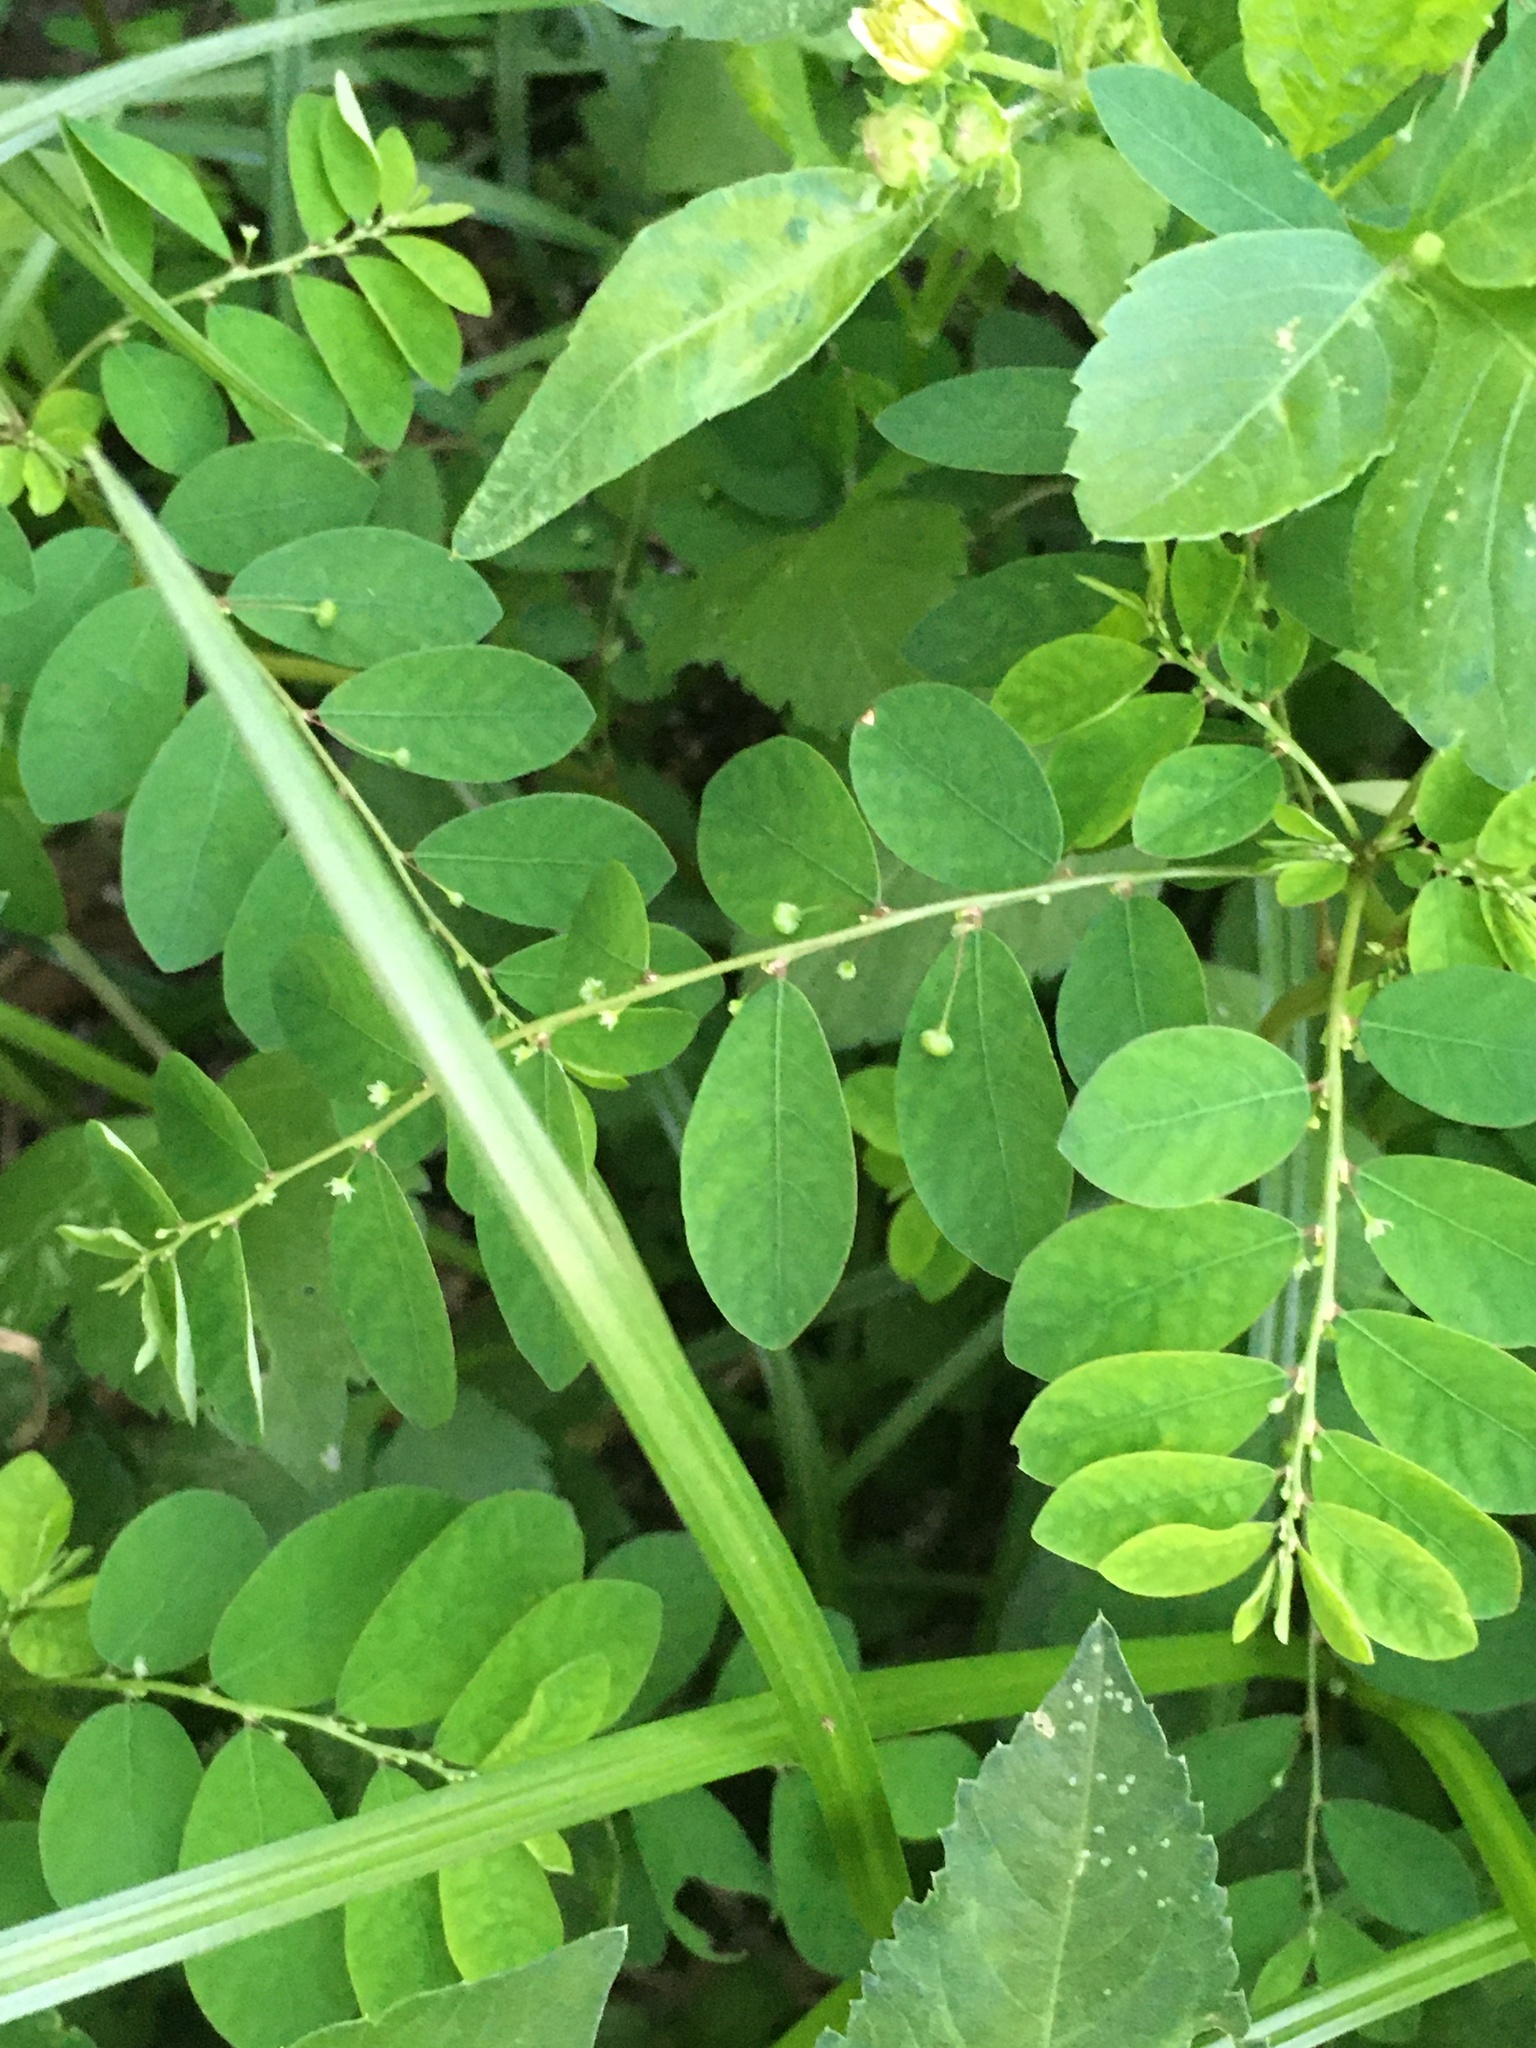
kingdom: Plantae
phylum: Tracheophyta
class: Magnoliopsida
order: Malpighiales
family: Phyllanthaceae
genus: Phyllanthus
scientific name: Phyllanthus tenellus
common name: Mascarene island leaf-flower
